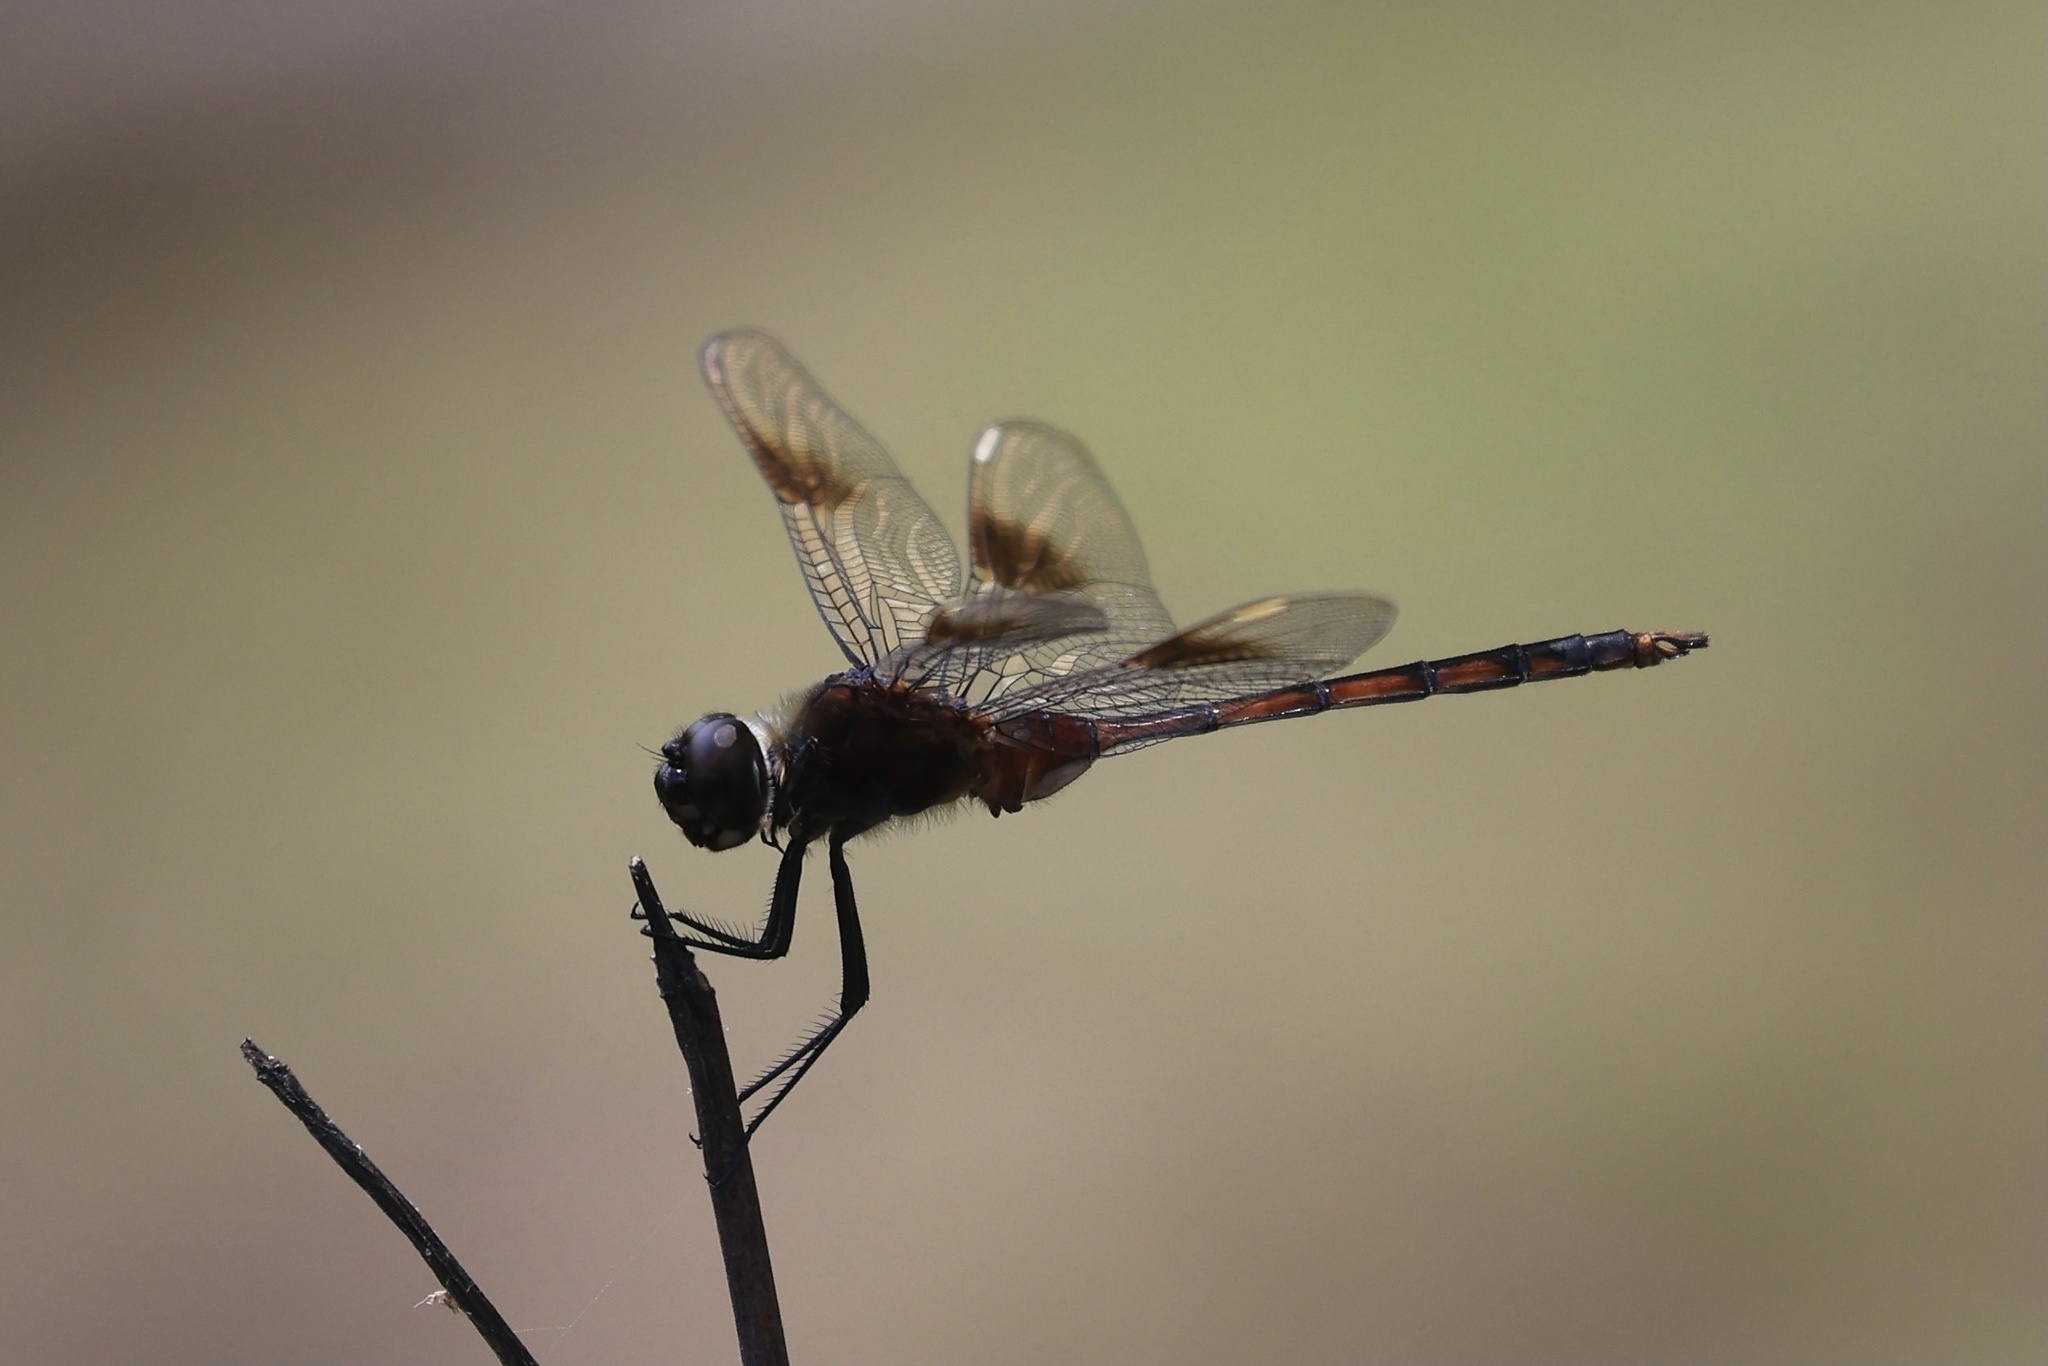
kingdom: Animalia
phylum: Arthropoda
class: Insecta
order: Odonata
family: Libellulidae
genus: Brachymesia
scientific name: Brachymesia gravida
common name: Four-spotted pennant
